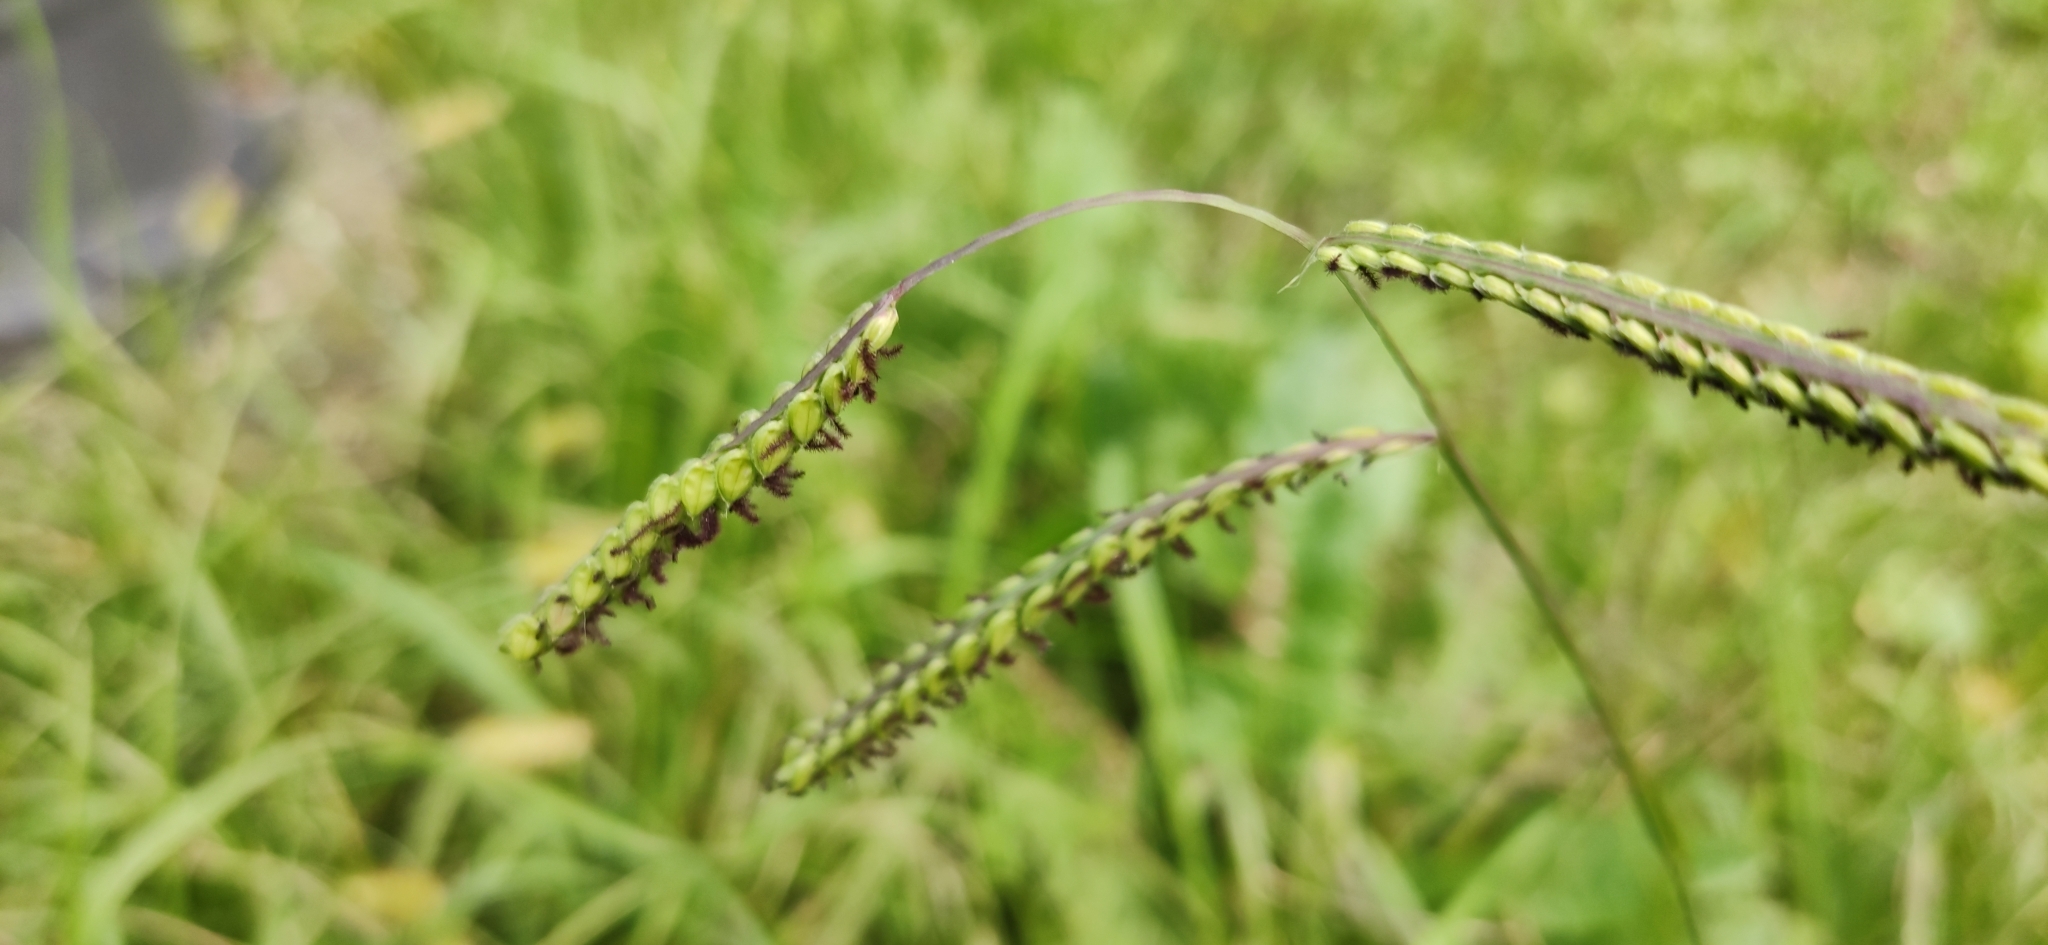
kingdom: Plantae
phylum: Tracheophyta
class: Liliopsida
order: Poales
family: Poaceae
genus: Paspalum
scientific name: Paspalum dilatatum
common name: Dallisgrass
